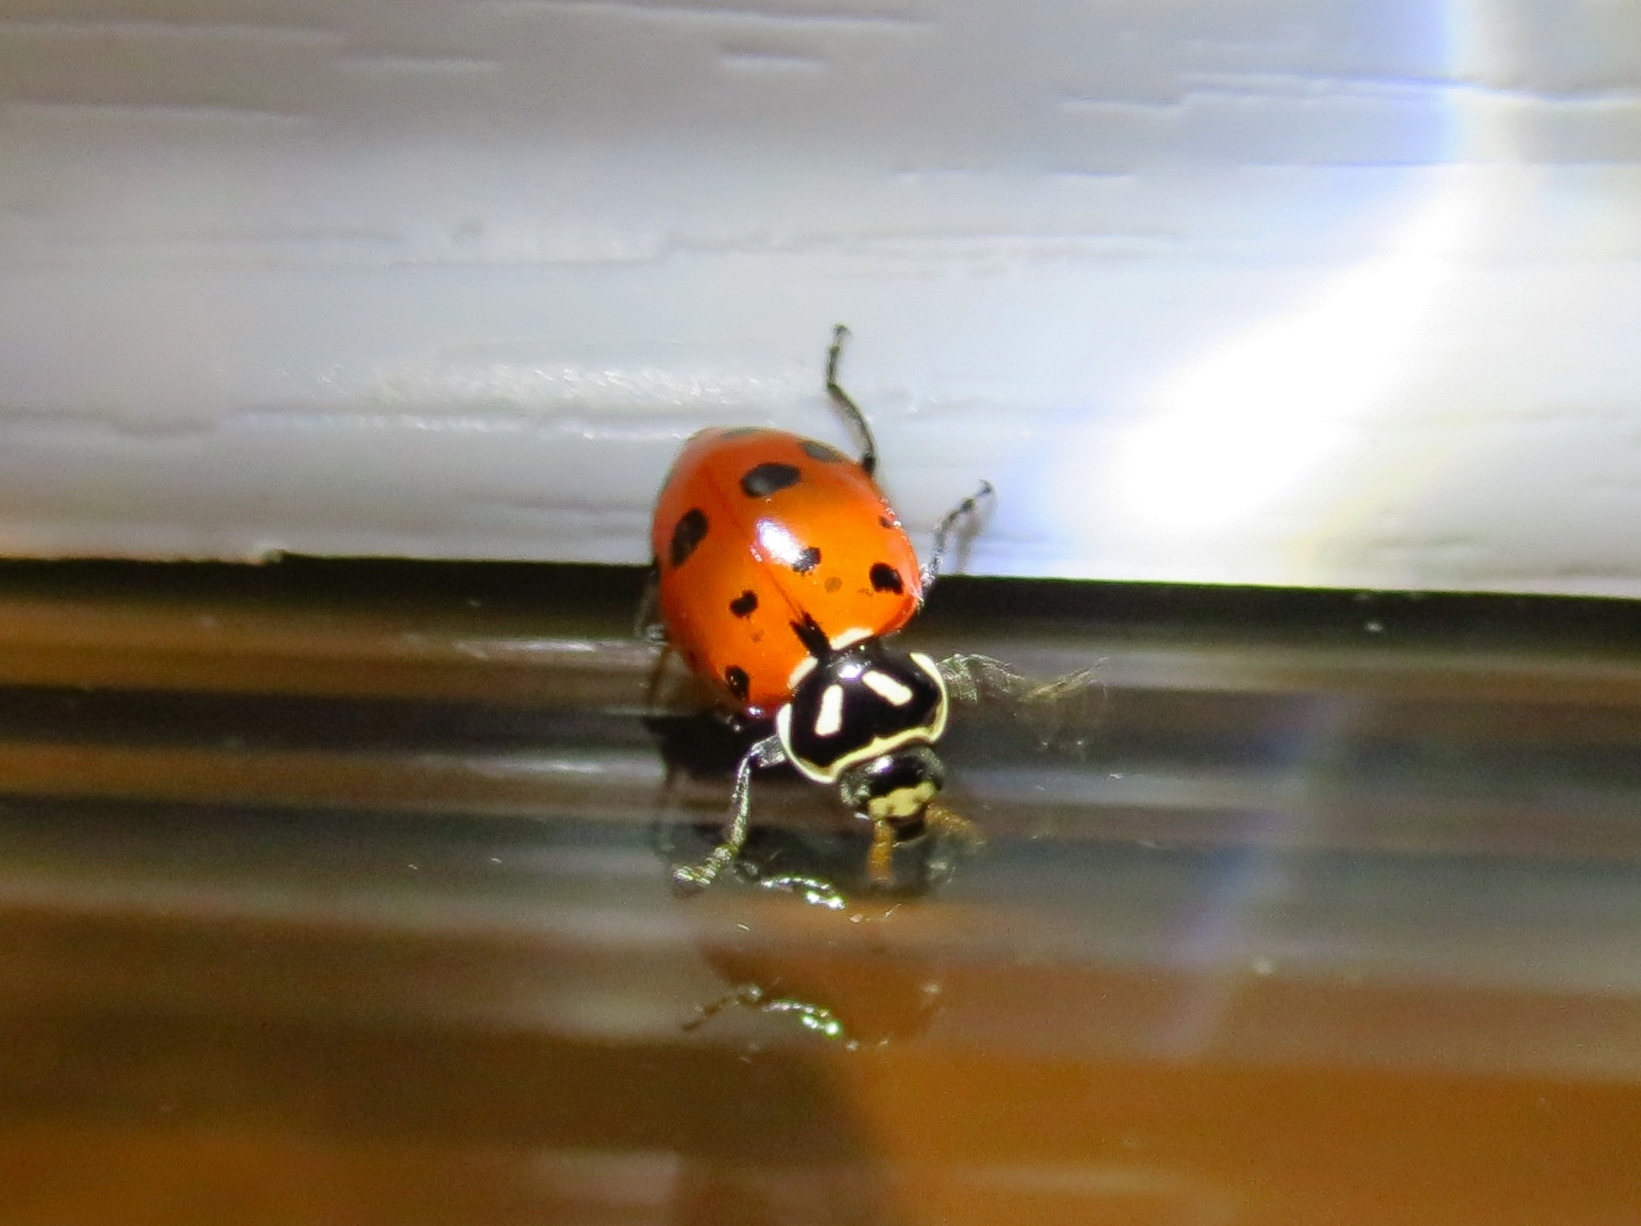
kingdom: Animalia
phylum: Arthropoda
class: Insecta
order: Coleoptera
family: Coccinellidae
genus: Hippodamia
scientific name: Hippodamia convergens
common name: Convergent lady beetle
